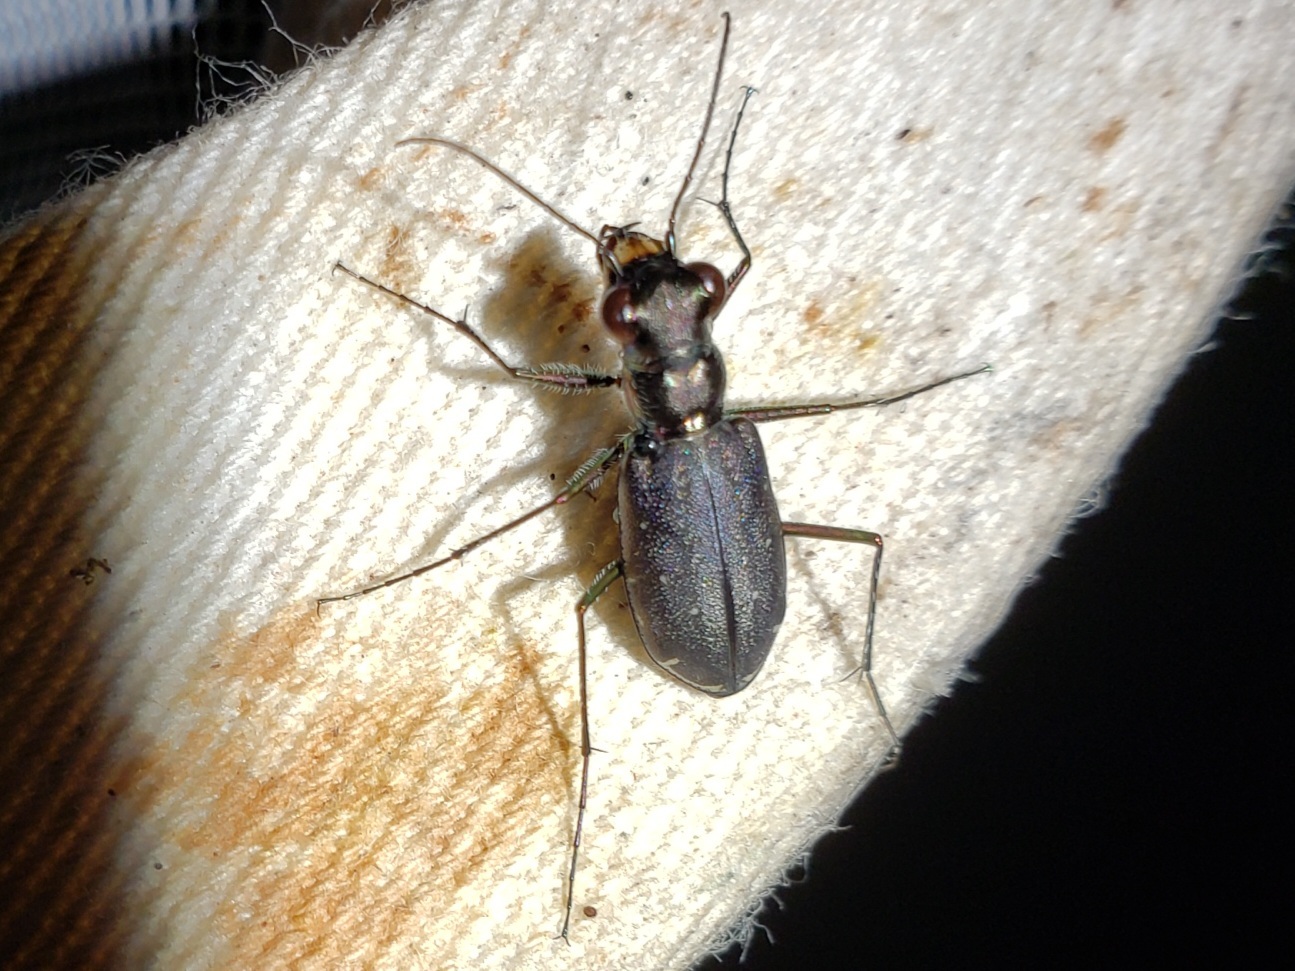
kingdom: Animalia
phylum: Arthropoda
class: Insecta
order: Coleoptera
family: Carabidae
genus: Cicindela
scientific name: Cicindela punctulata
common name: Punctured tiger beetle
